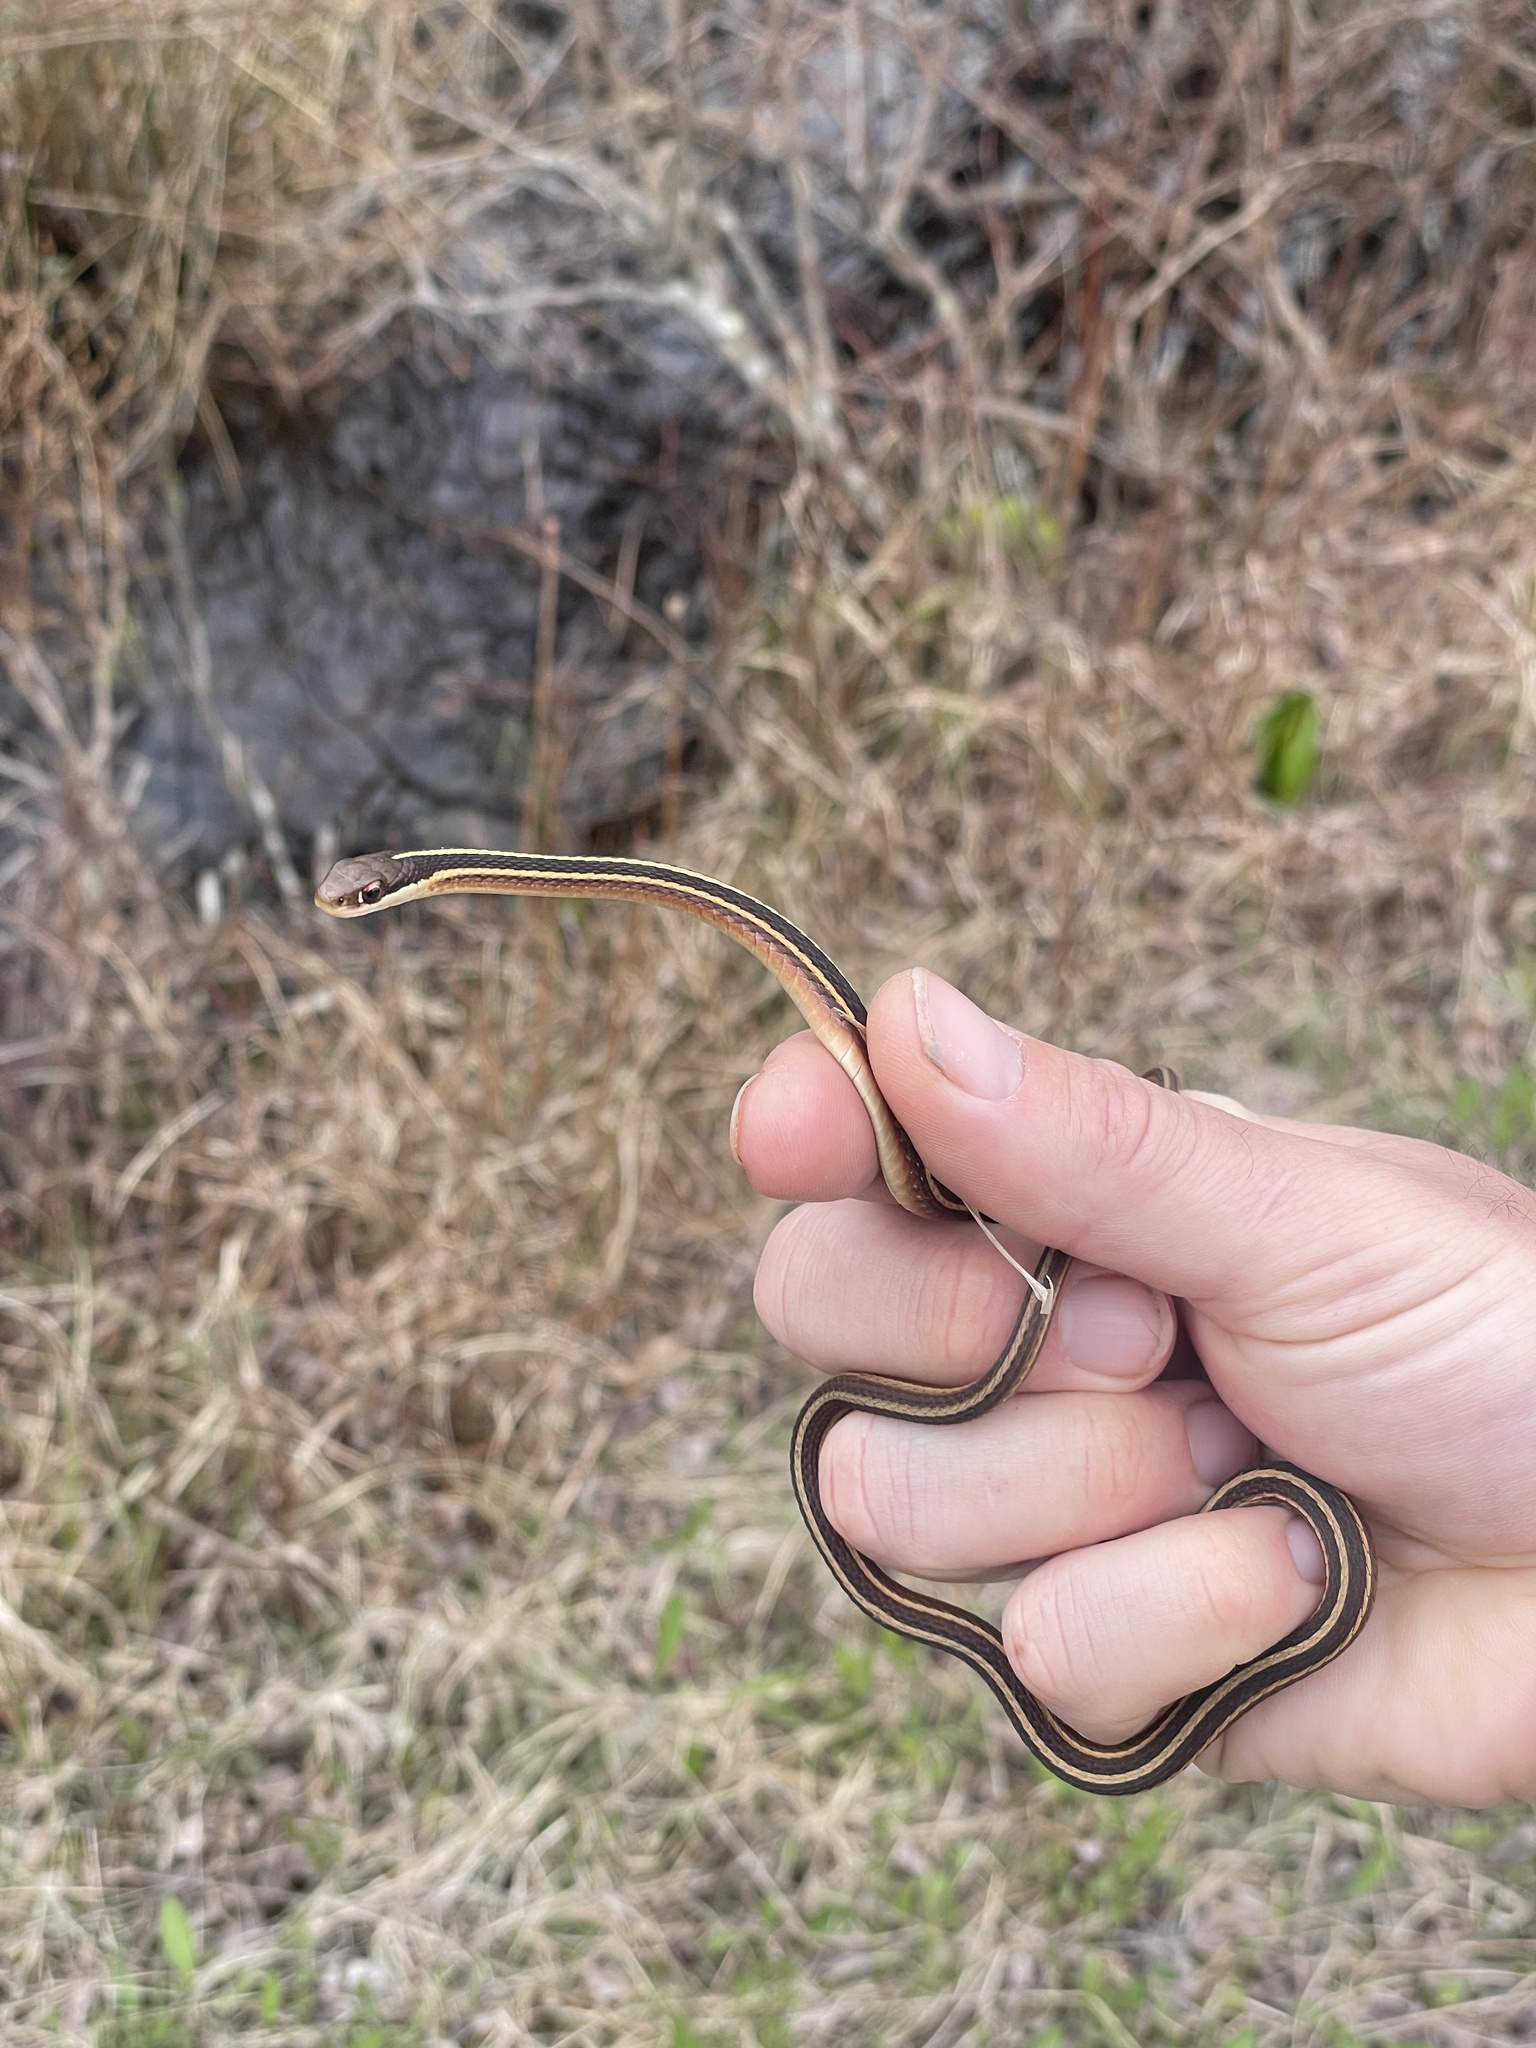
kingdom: Animalia
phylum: Chordata
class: Squamata
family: Colubridae
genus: Thamnophis
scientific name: Thamnophis saurita
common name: Eastern ribbonsnake
